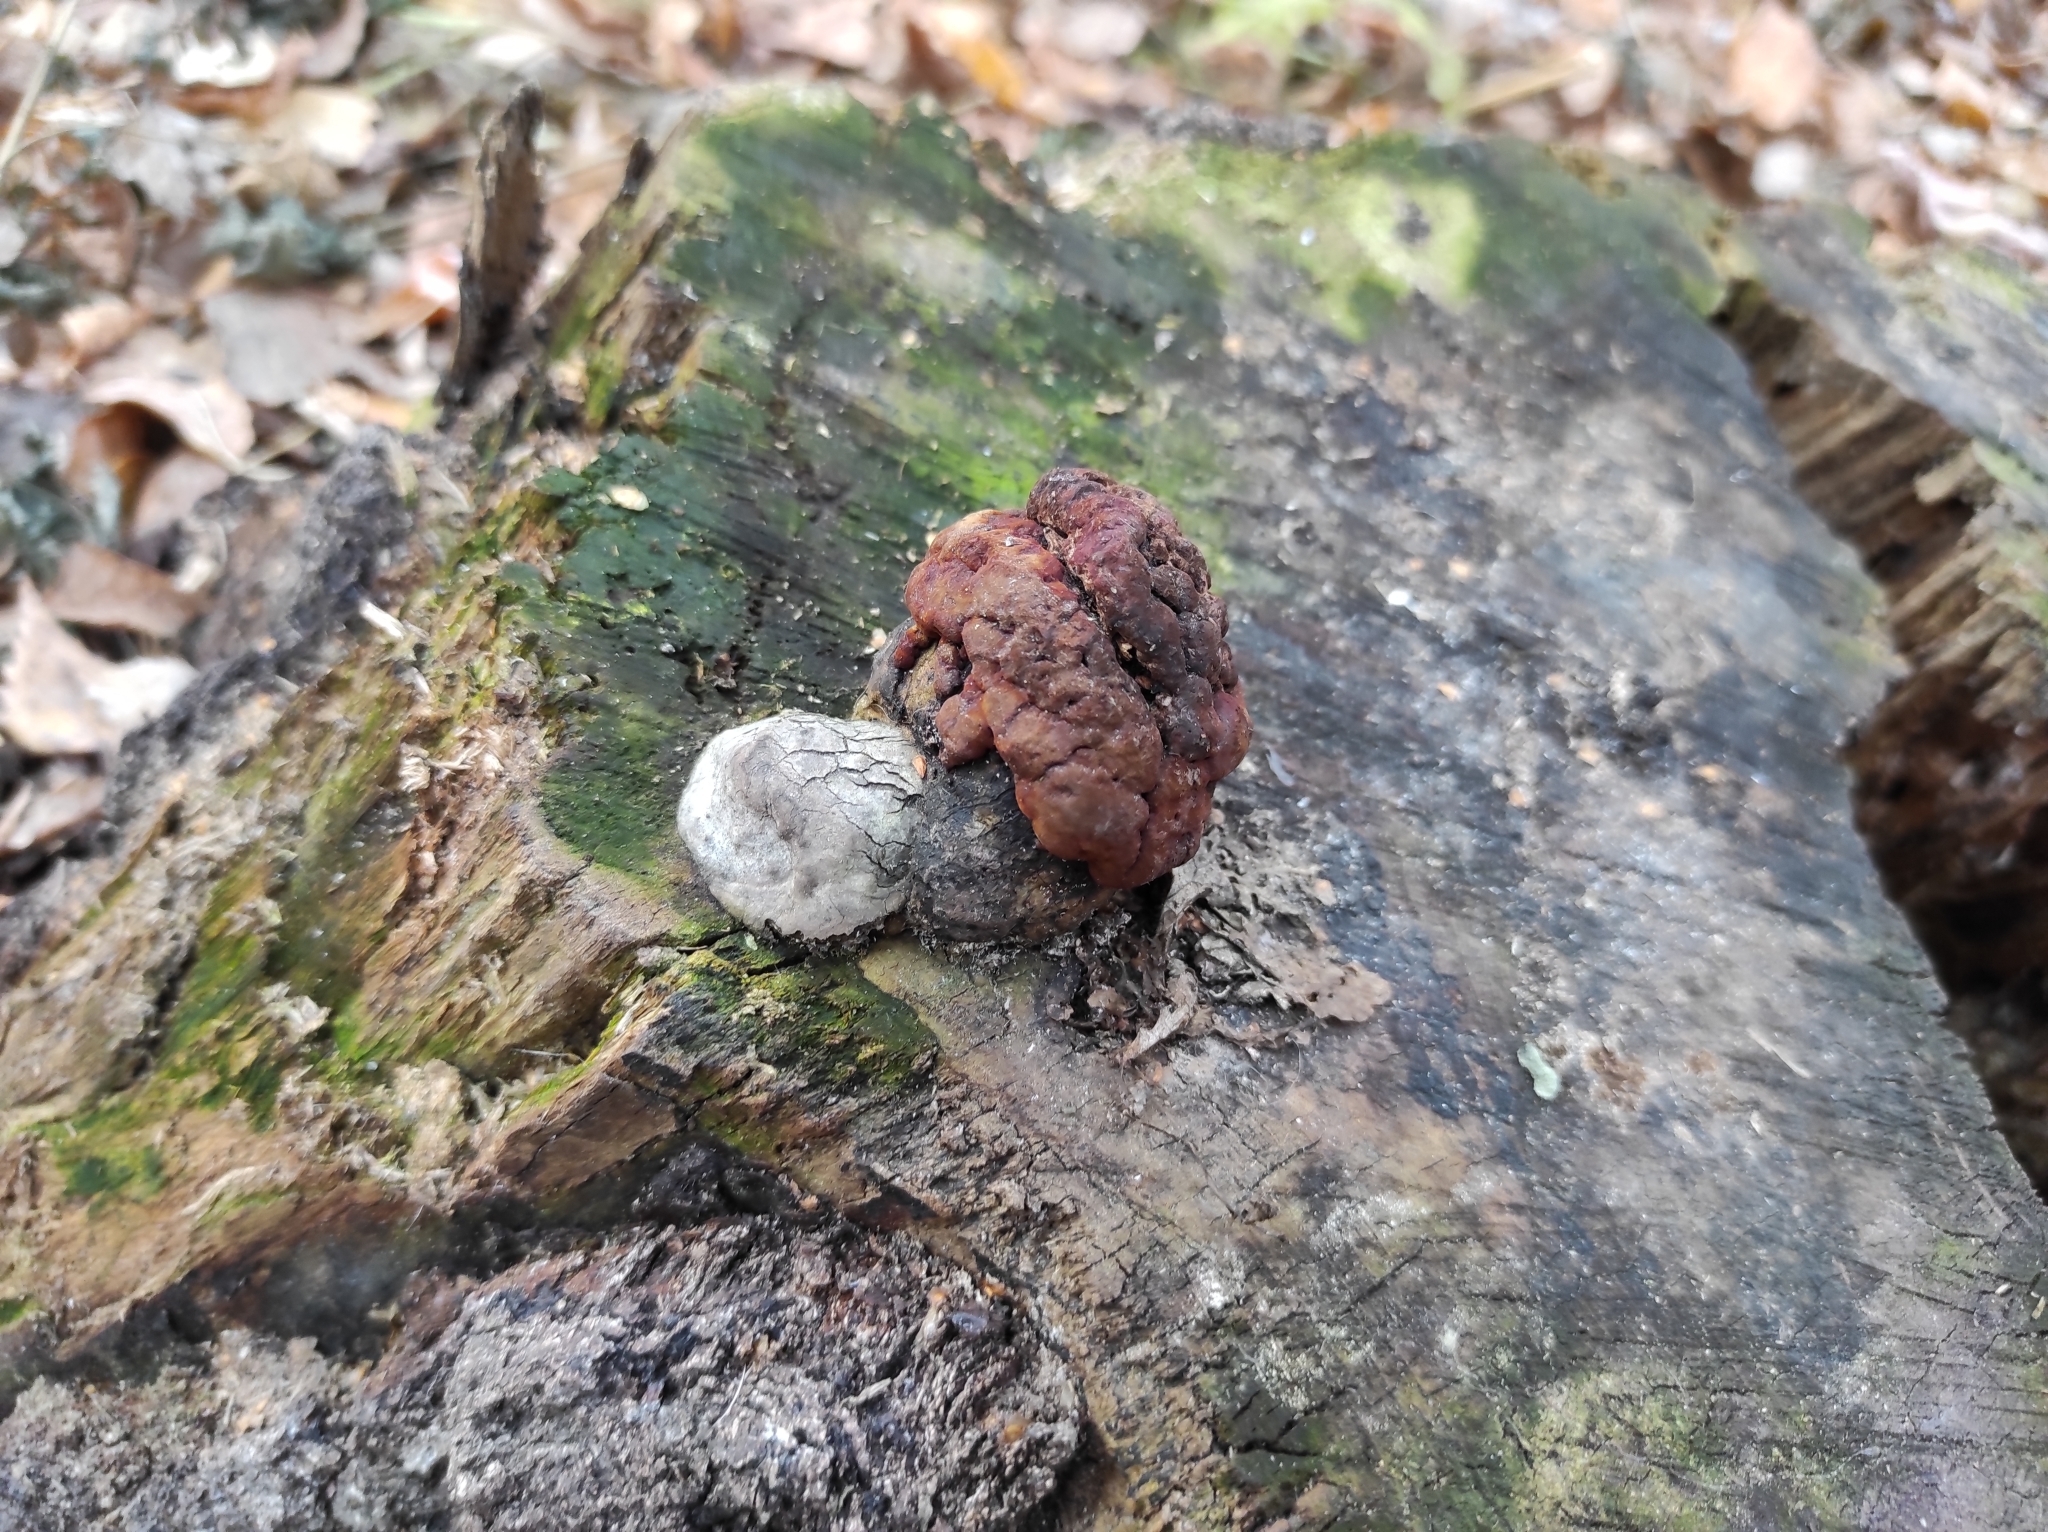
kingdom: Fungi
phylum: Basidiomycota
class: Agaricomycetes
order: Polyporales
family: Fomitopsidaceae
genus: Fomitopsis
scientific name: Fomitopsis pinicola
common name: Red-belted bracket
